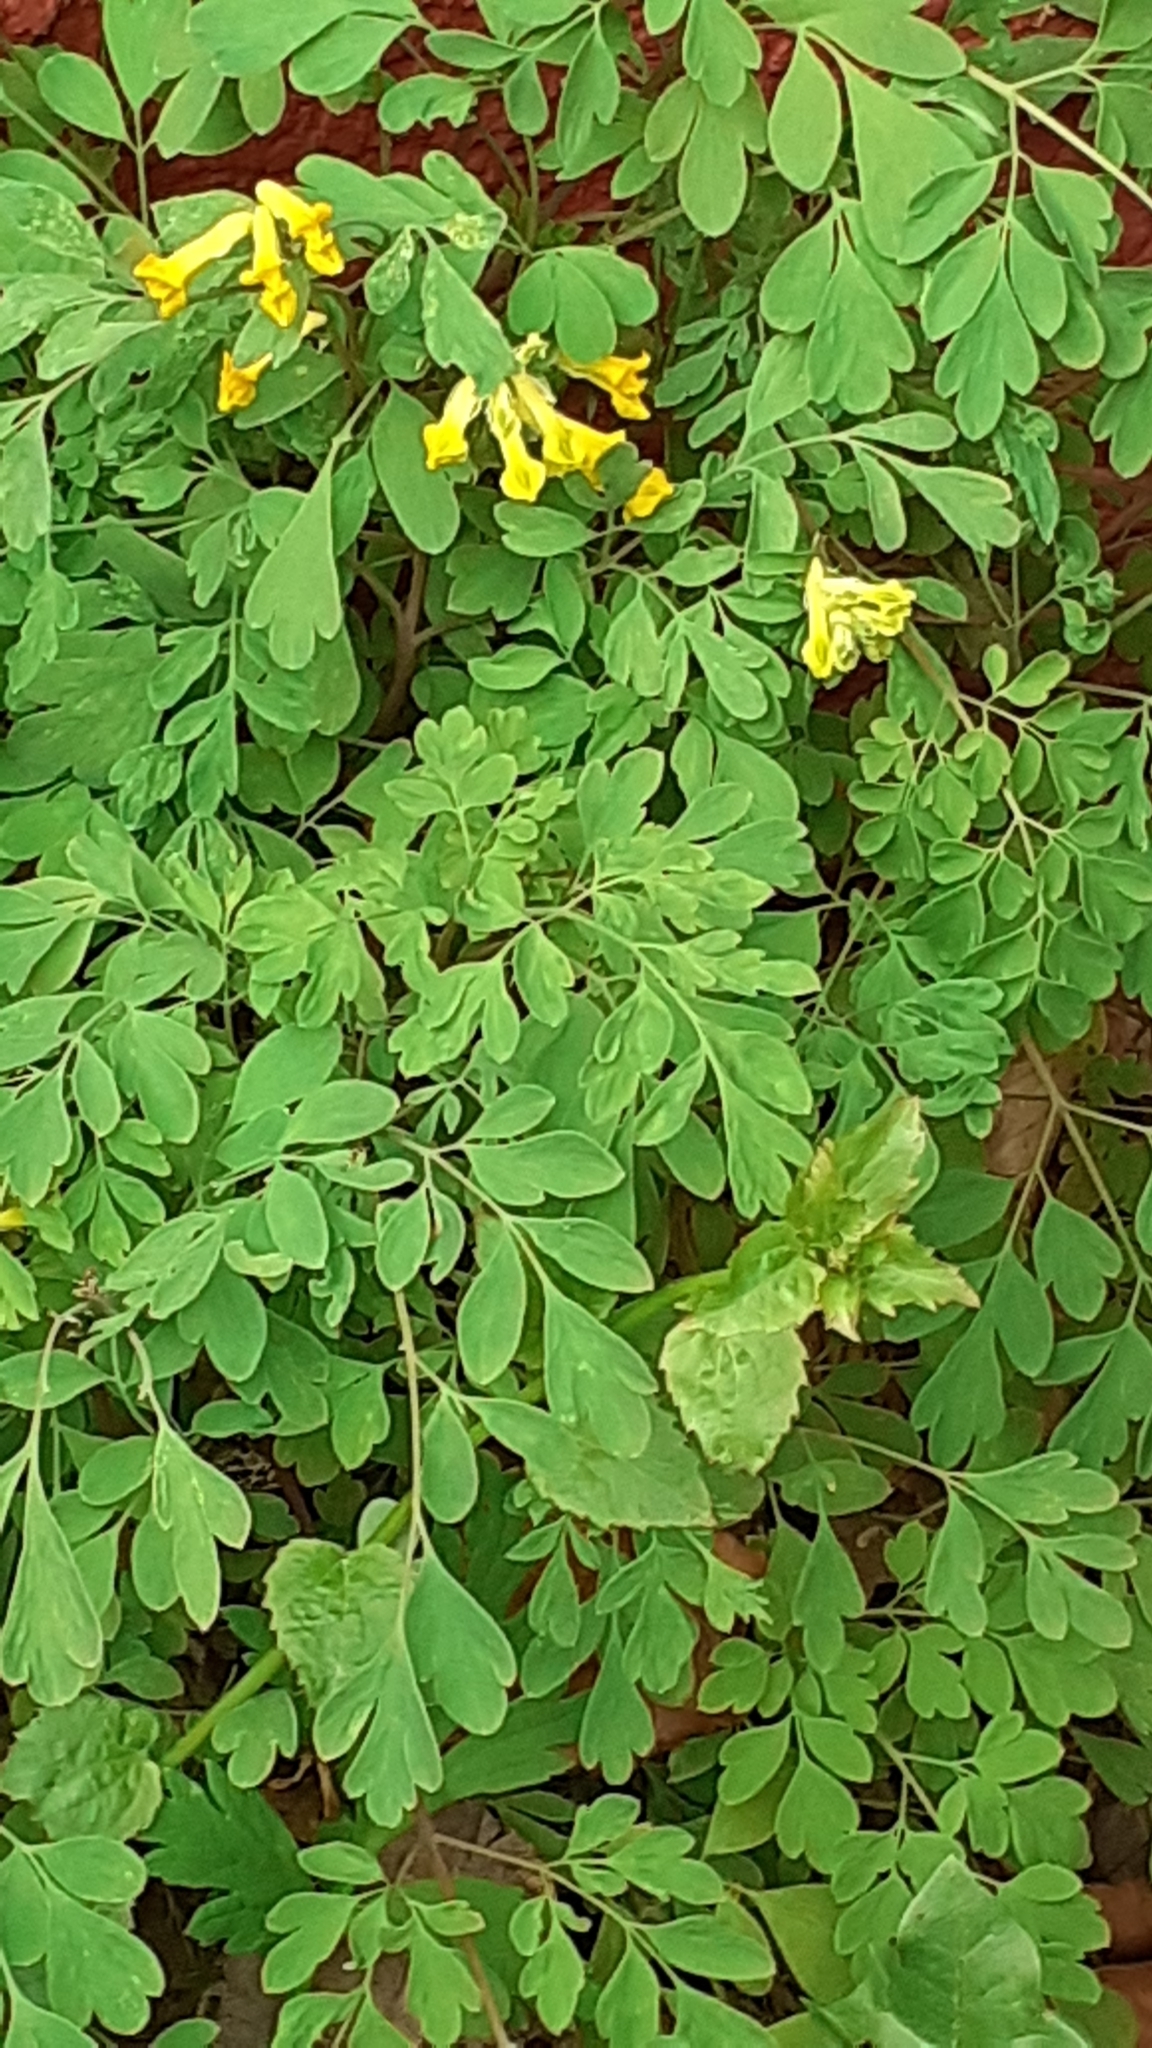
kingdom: Plantae
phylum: Tracheophyta
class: Magnoliopsida
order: Ranunculales
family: Papaveraceae
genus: Pseudofumaria
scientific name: Pseudofumaria lutea
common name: Yellow corydalis
